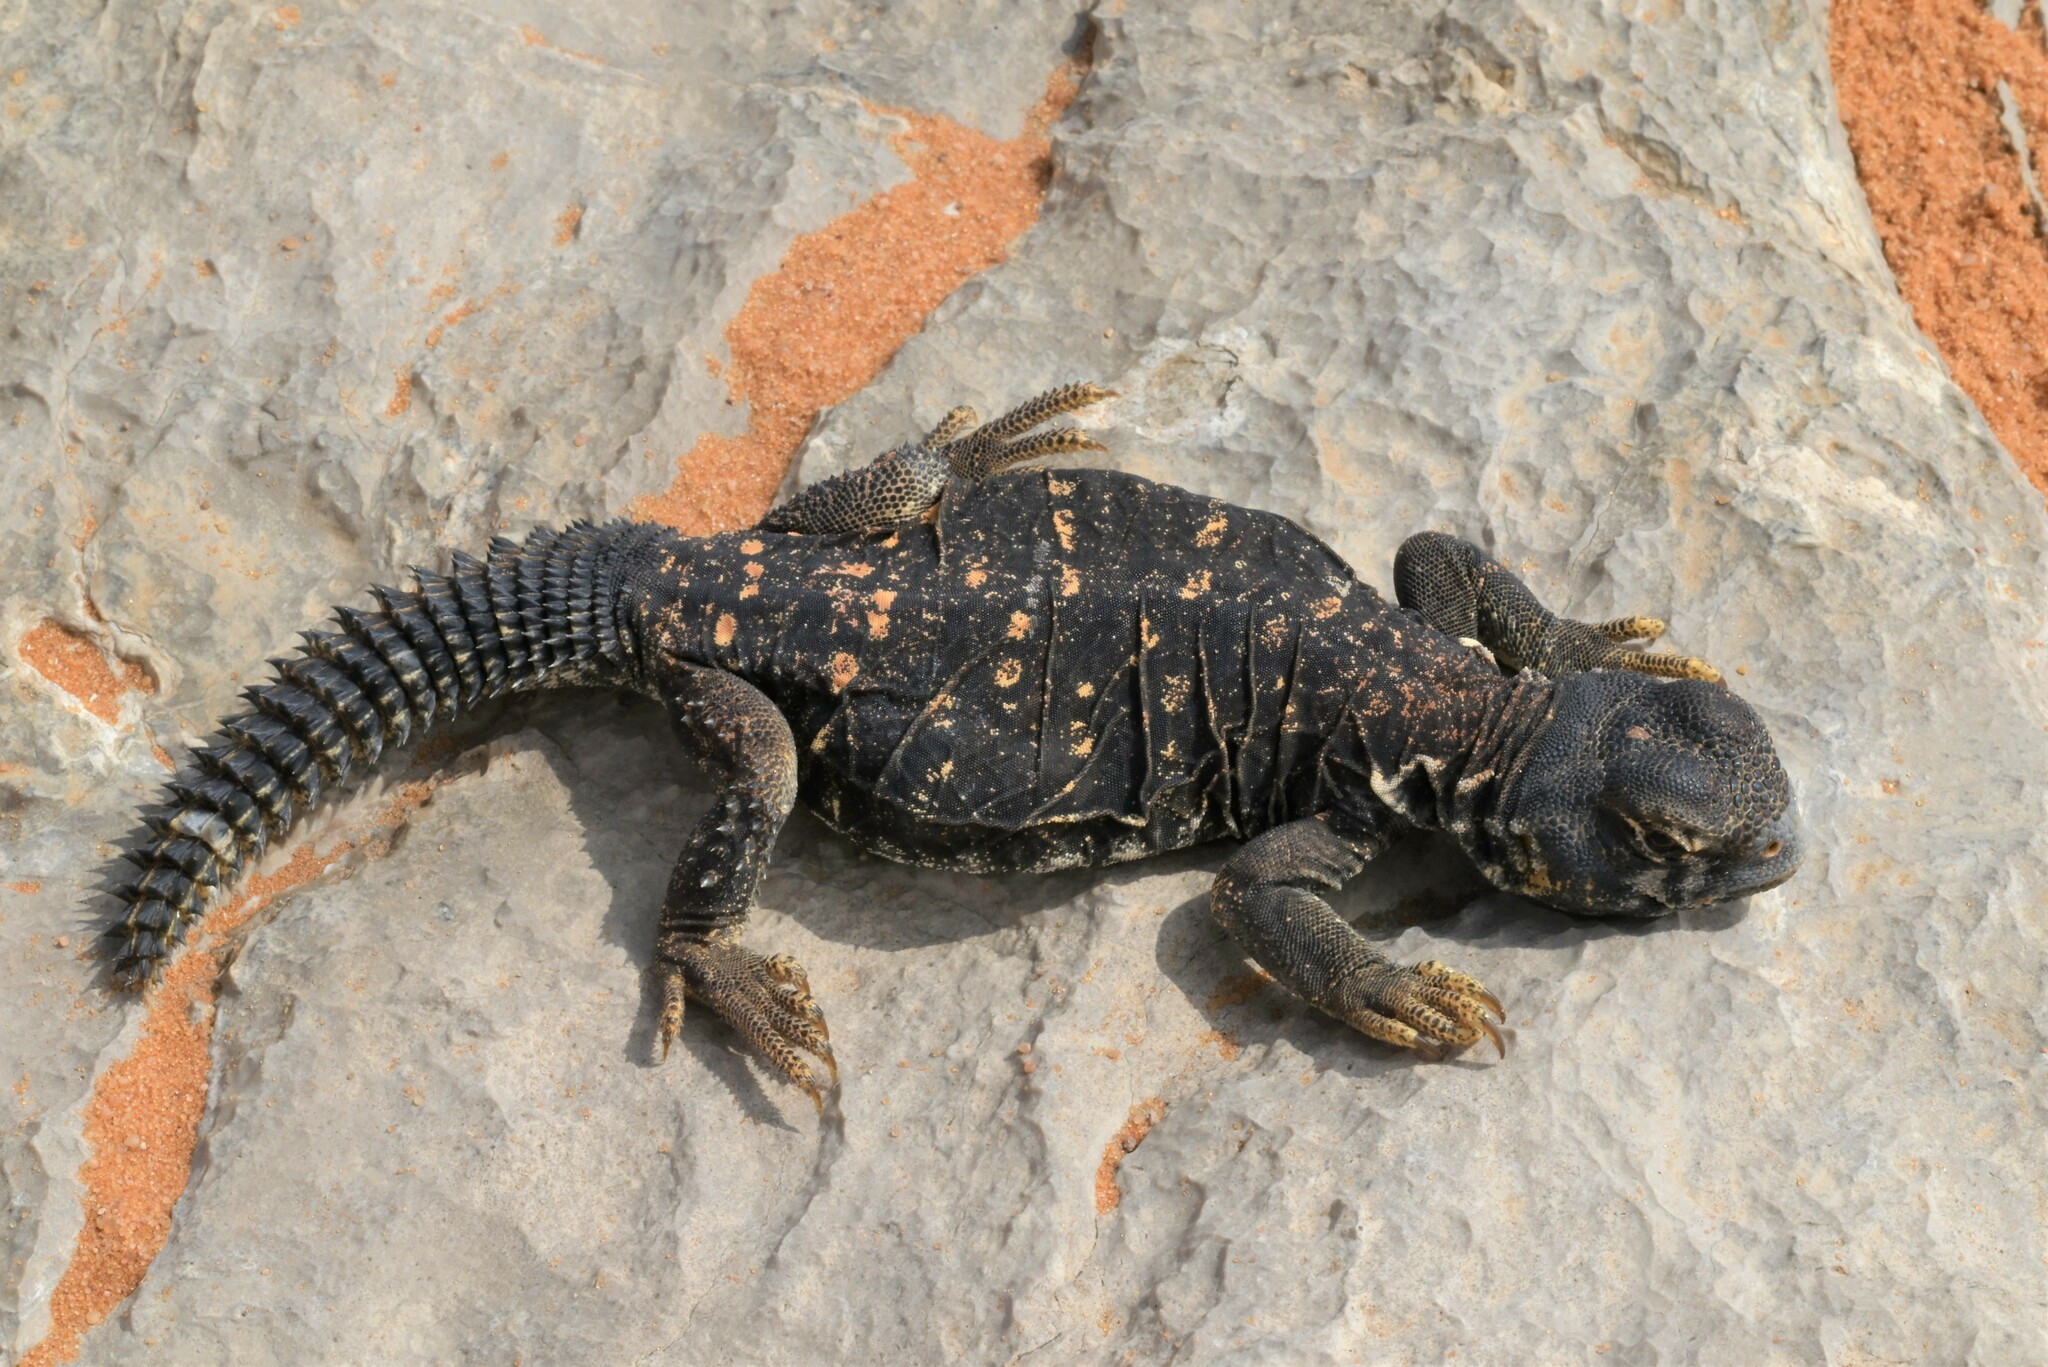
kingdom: Animalia
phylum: Chordata
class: Squamata
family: Agamidae
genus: Uromastyx
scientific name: Uromastyx aegyptia
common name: Egyptian mastigure
